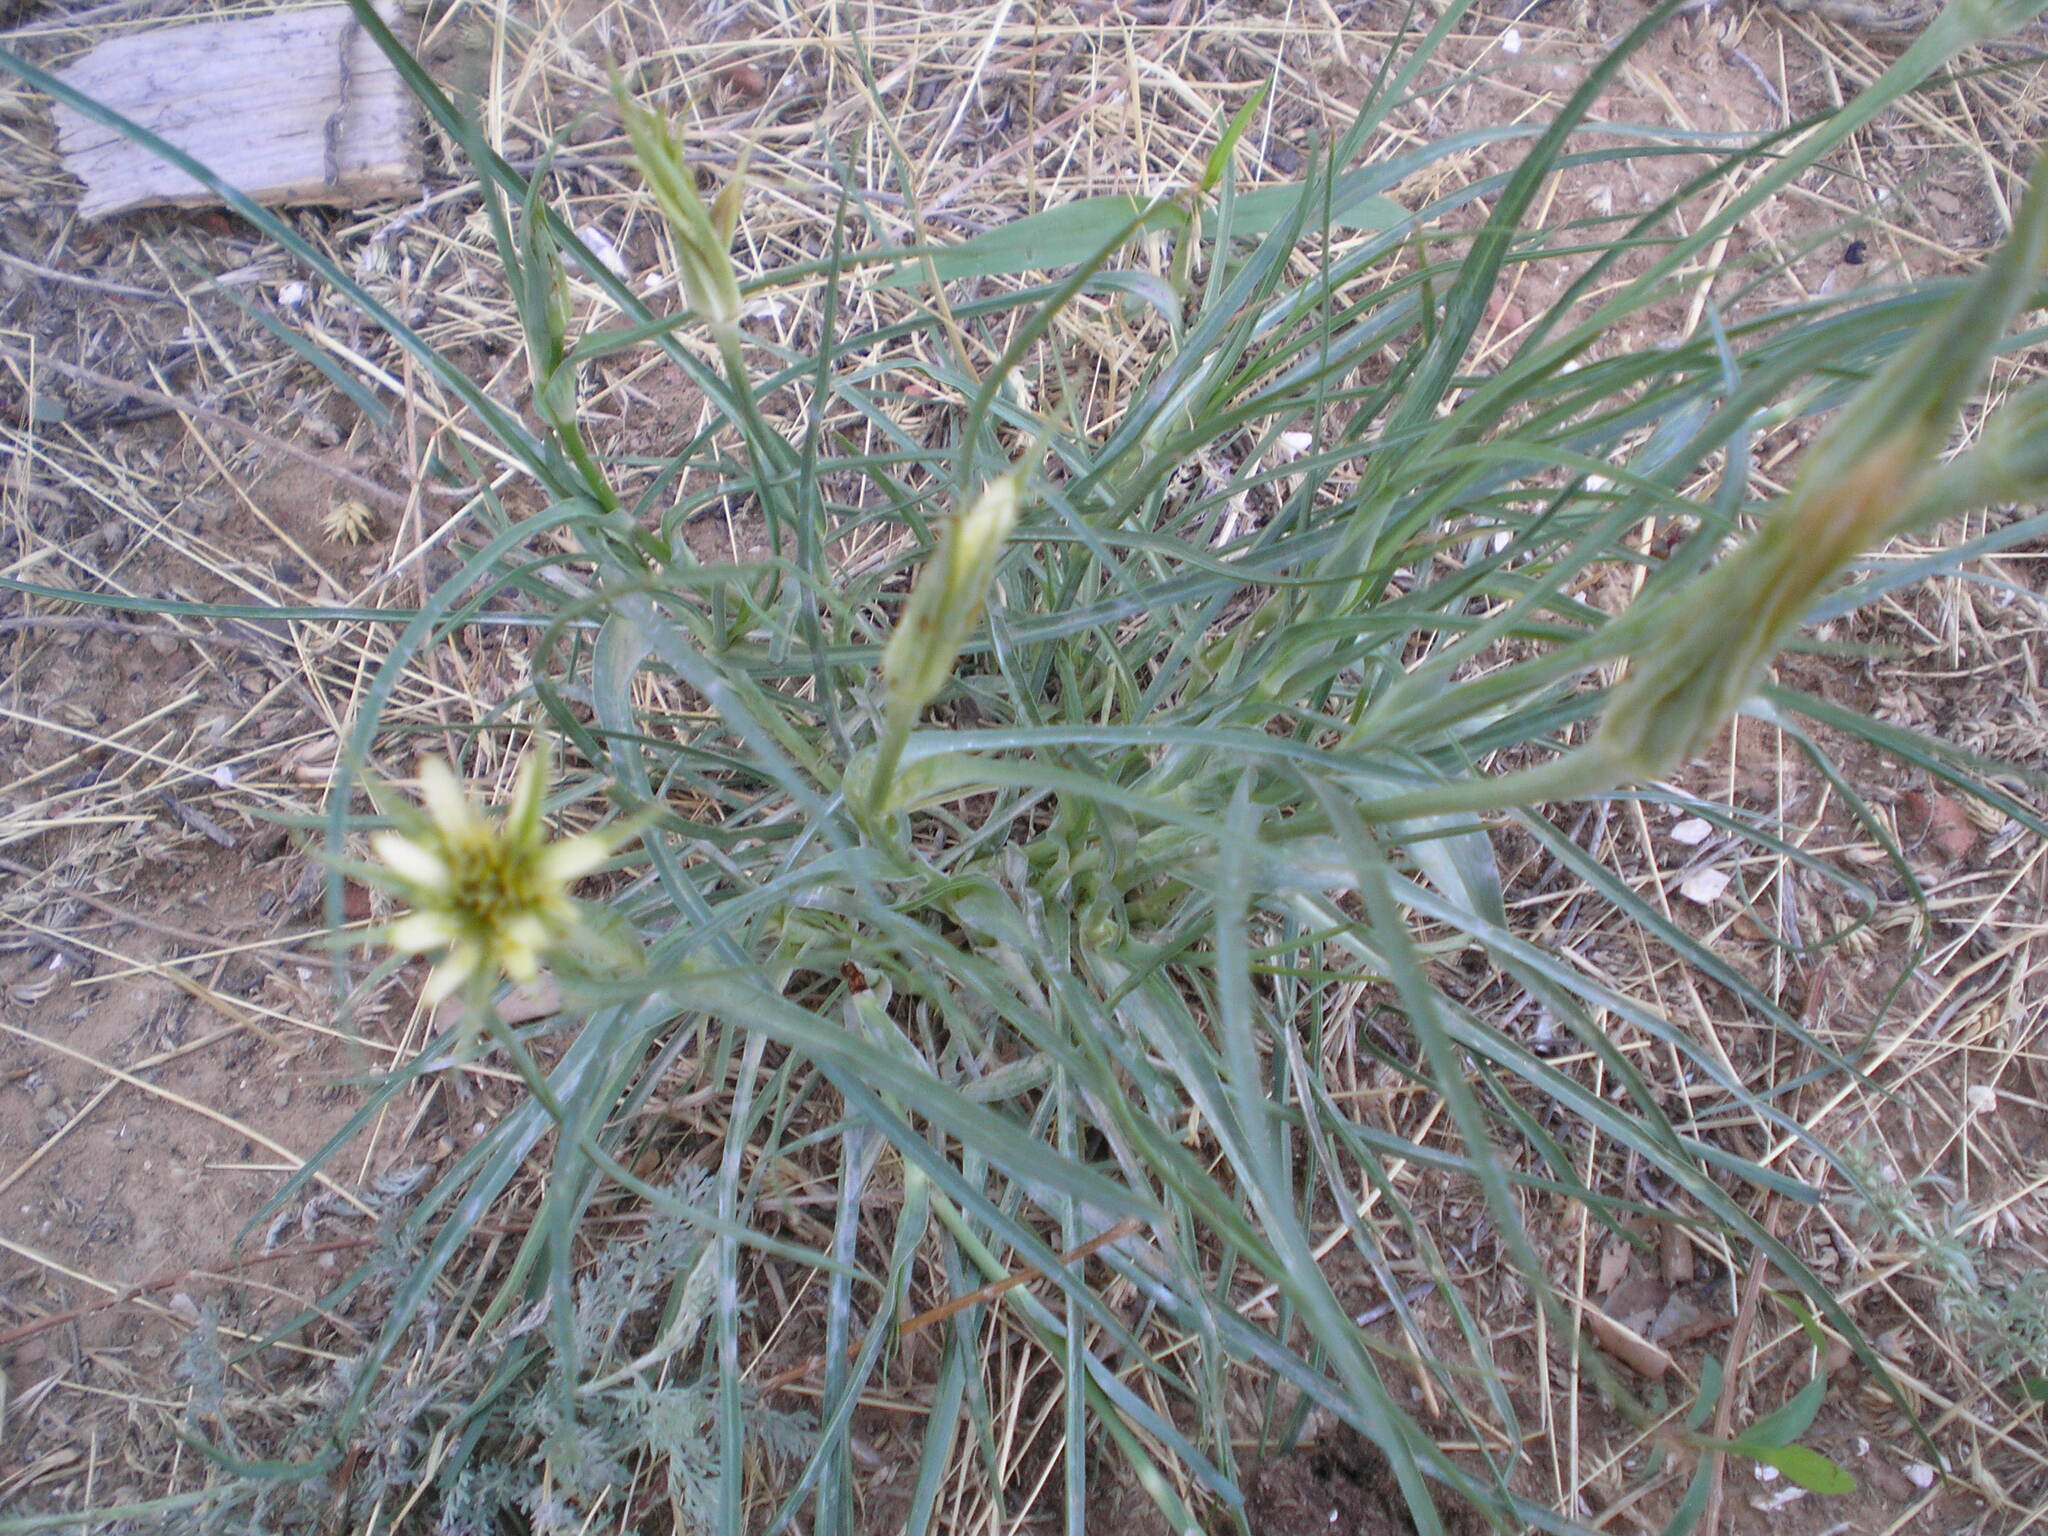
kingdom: Plantae
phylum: Tracheophyta
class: Magnoliopsida
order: Asterales
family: Asteraceae
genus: Tragopogon
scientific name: Tragopogon dubius
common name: Yellow salsify
